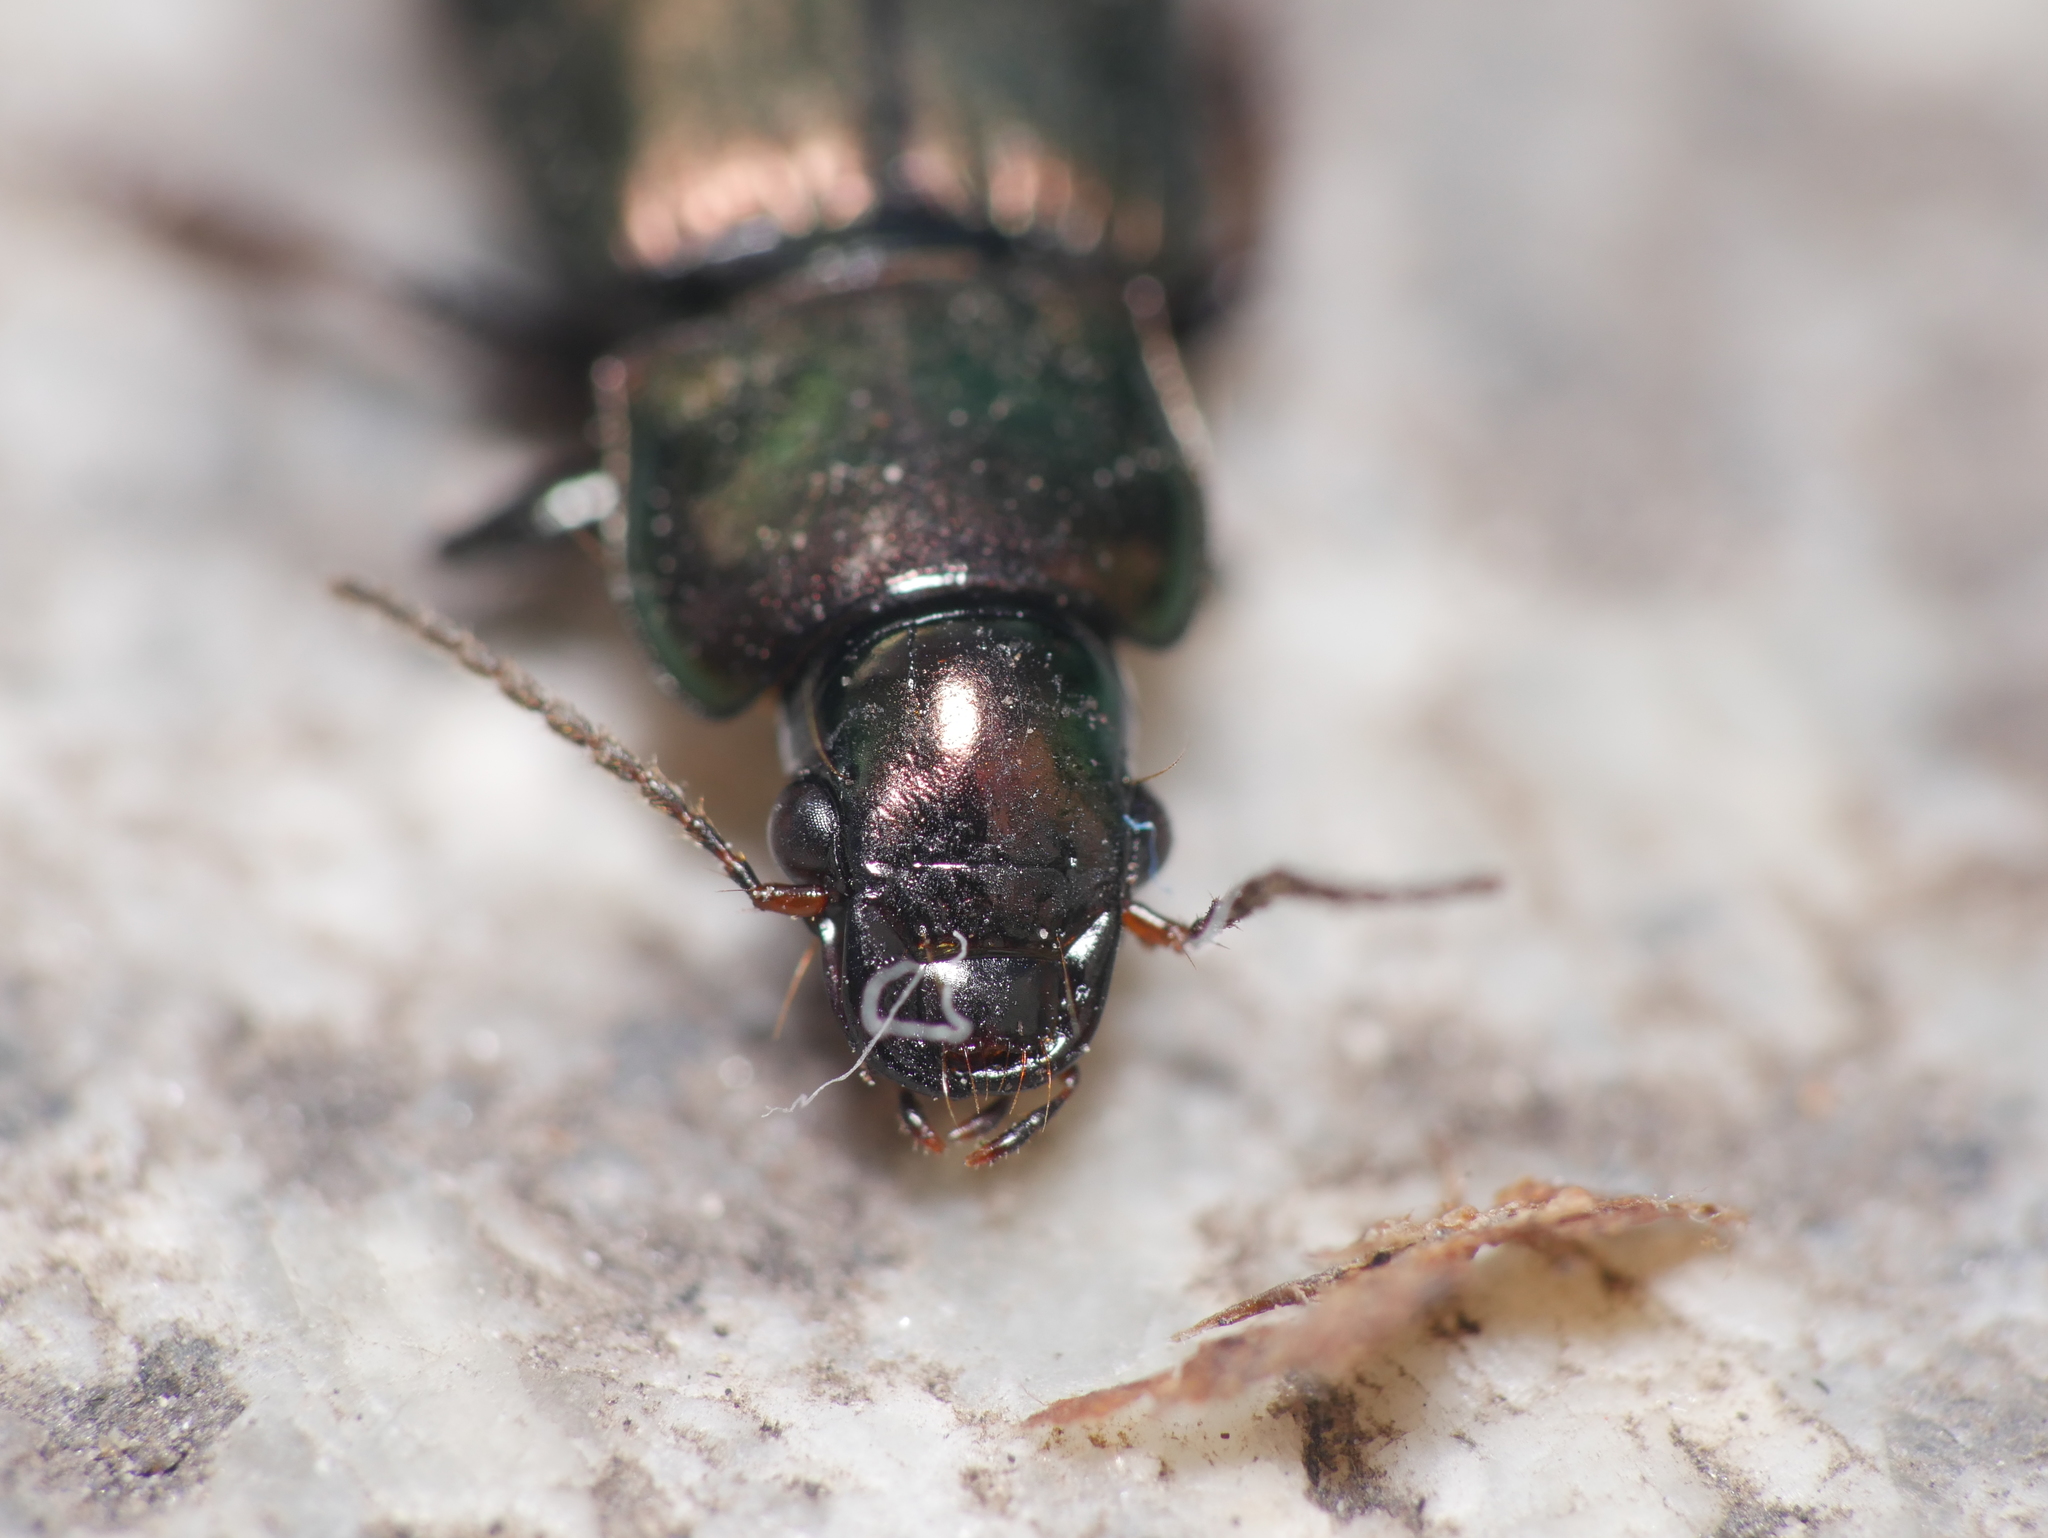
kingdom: Animalia
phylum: Arthropoda
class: Insecta
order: Coleoptera
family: Carabidae
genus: Harpalus
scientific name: Harpalus distinguendus
